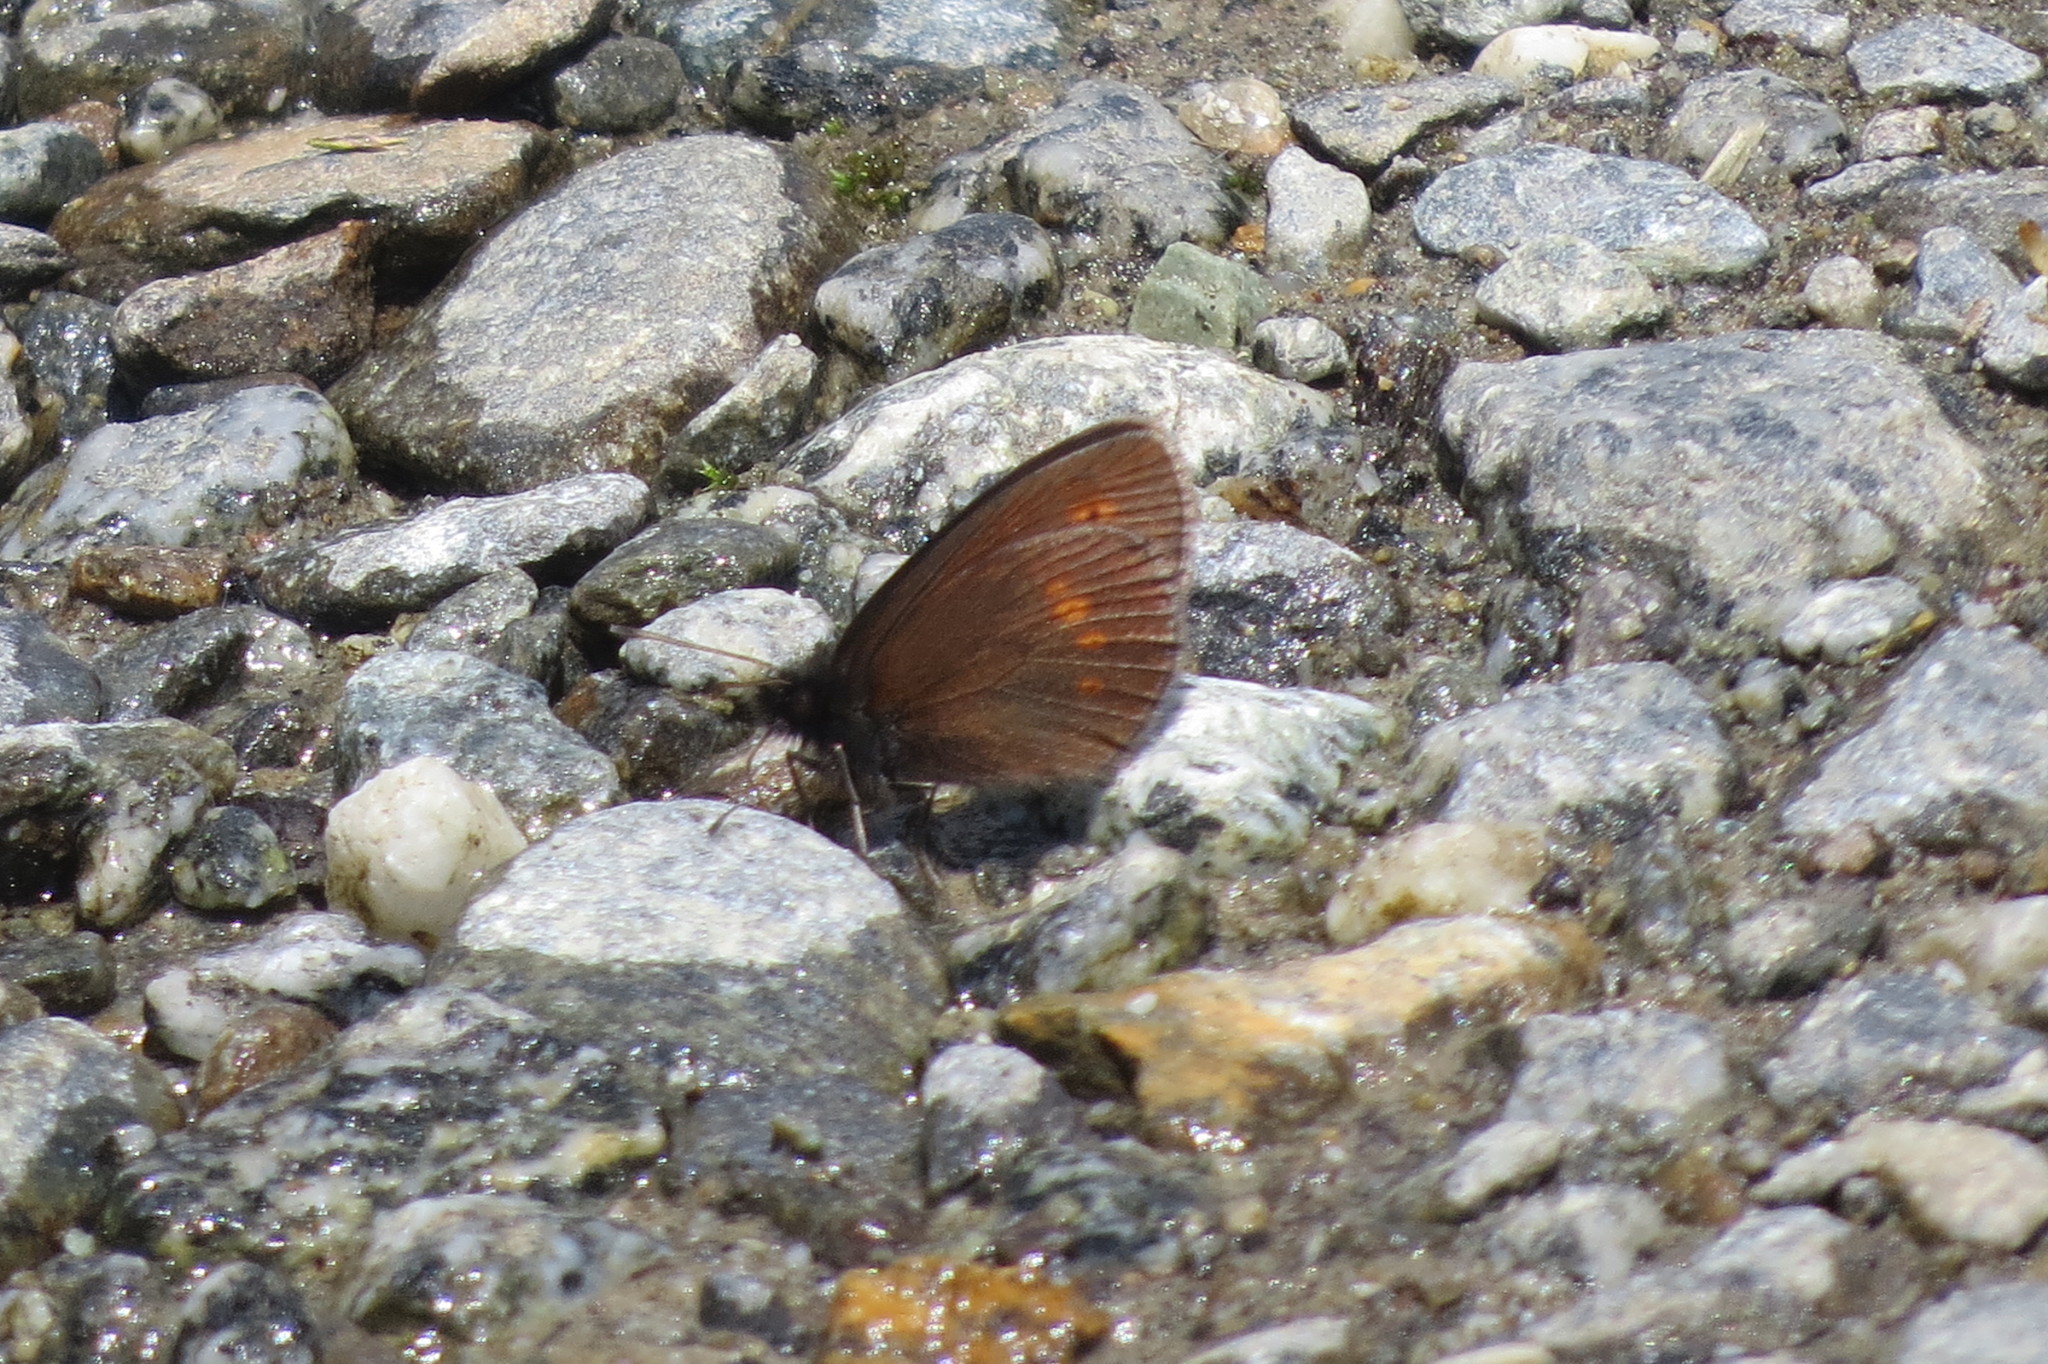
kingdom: Animalia
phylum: Arthropoda
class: Insecta
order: Lepidoptera
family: Nymphalidae
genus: Erebia
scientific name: Erebia melampus
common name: Lesser mountain ringlet
